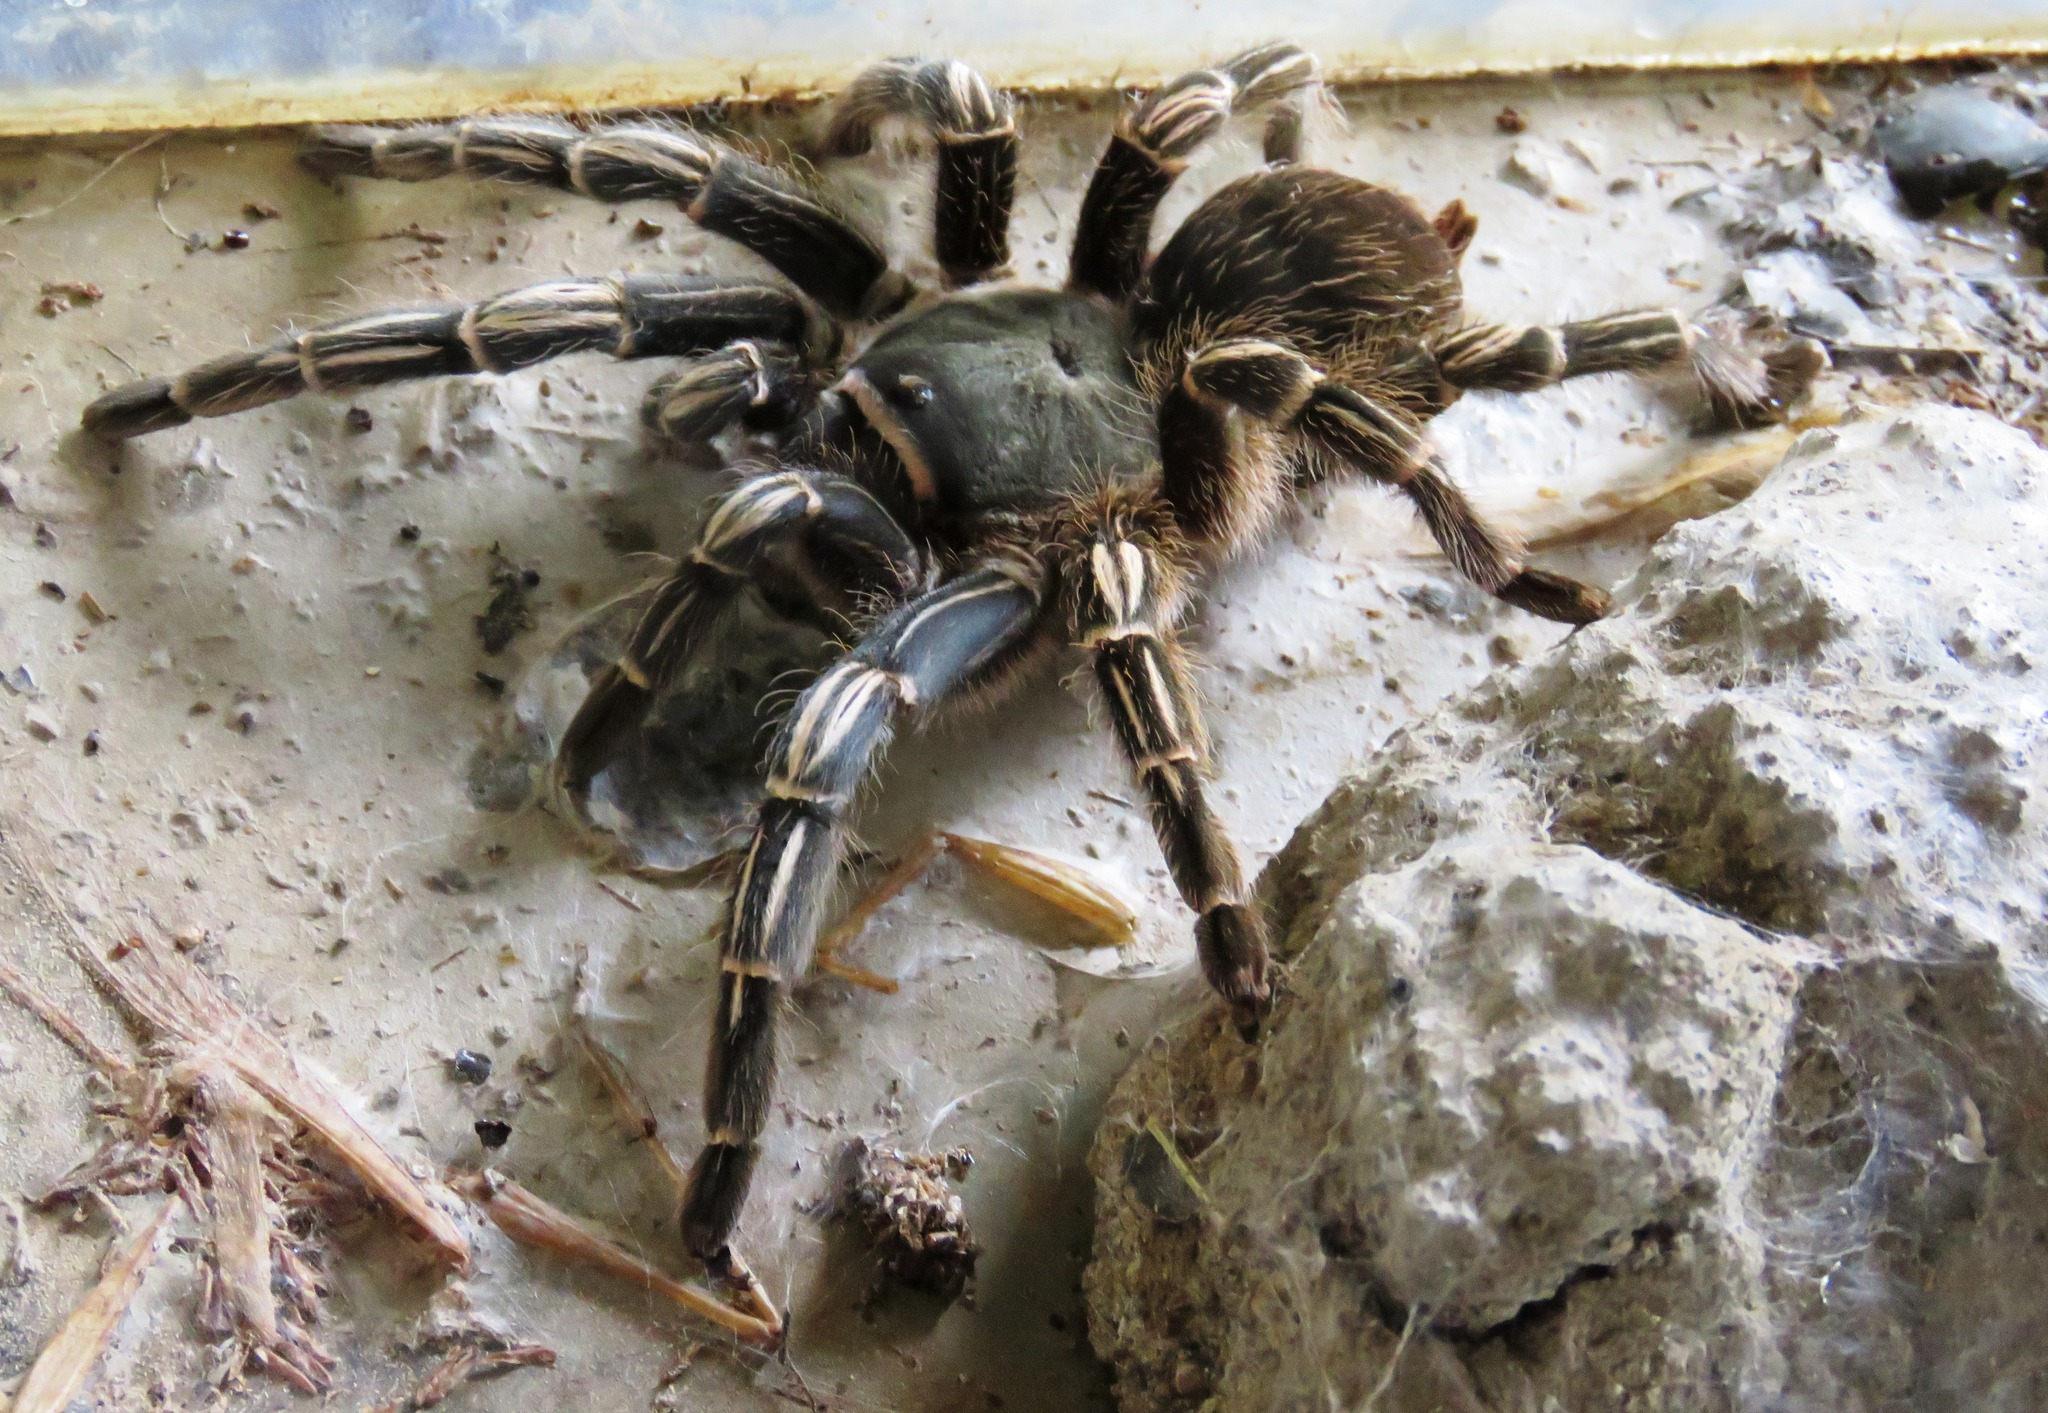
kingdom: Animalia
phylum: Arthropoda
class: Arachnida
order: Araneae
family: Theraphosidae
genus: Aphonopelma
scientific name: Aphonopelma seemanni
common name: Tarantula spiders
